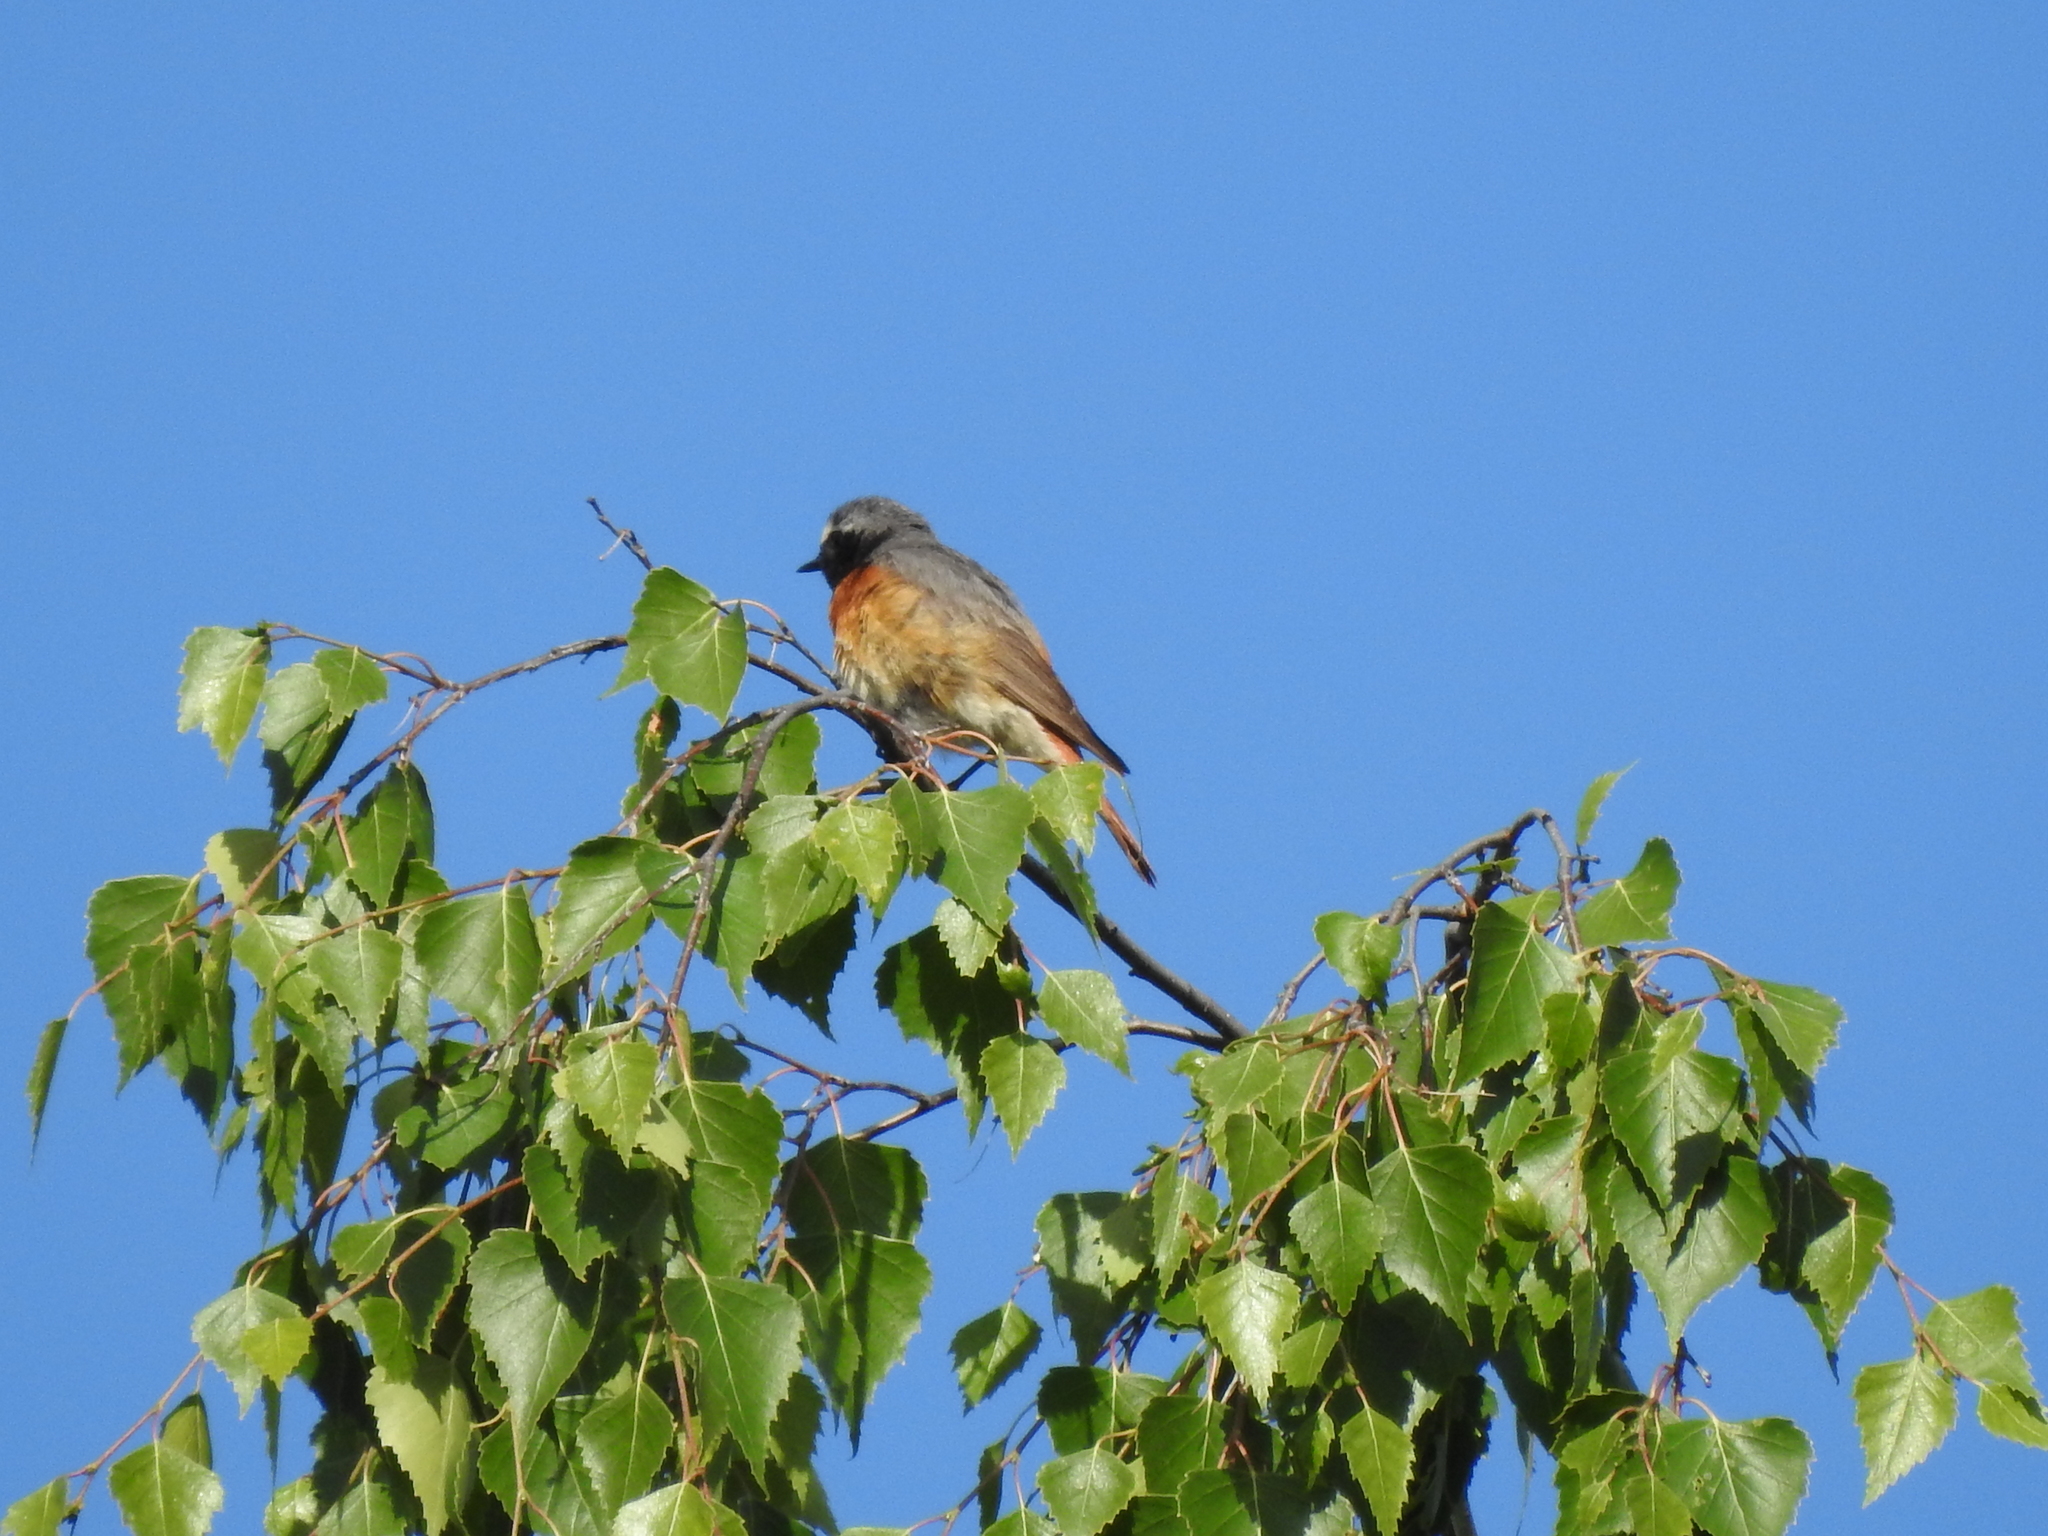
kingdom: Animalia
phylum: Chordata
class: Aves
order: Passeriformes
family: Muscicapidae
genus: Phoenicurus
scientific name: Phoenicurus phoenicurus
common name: Common redstart
